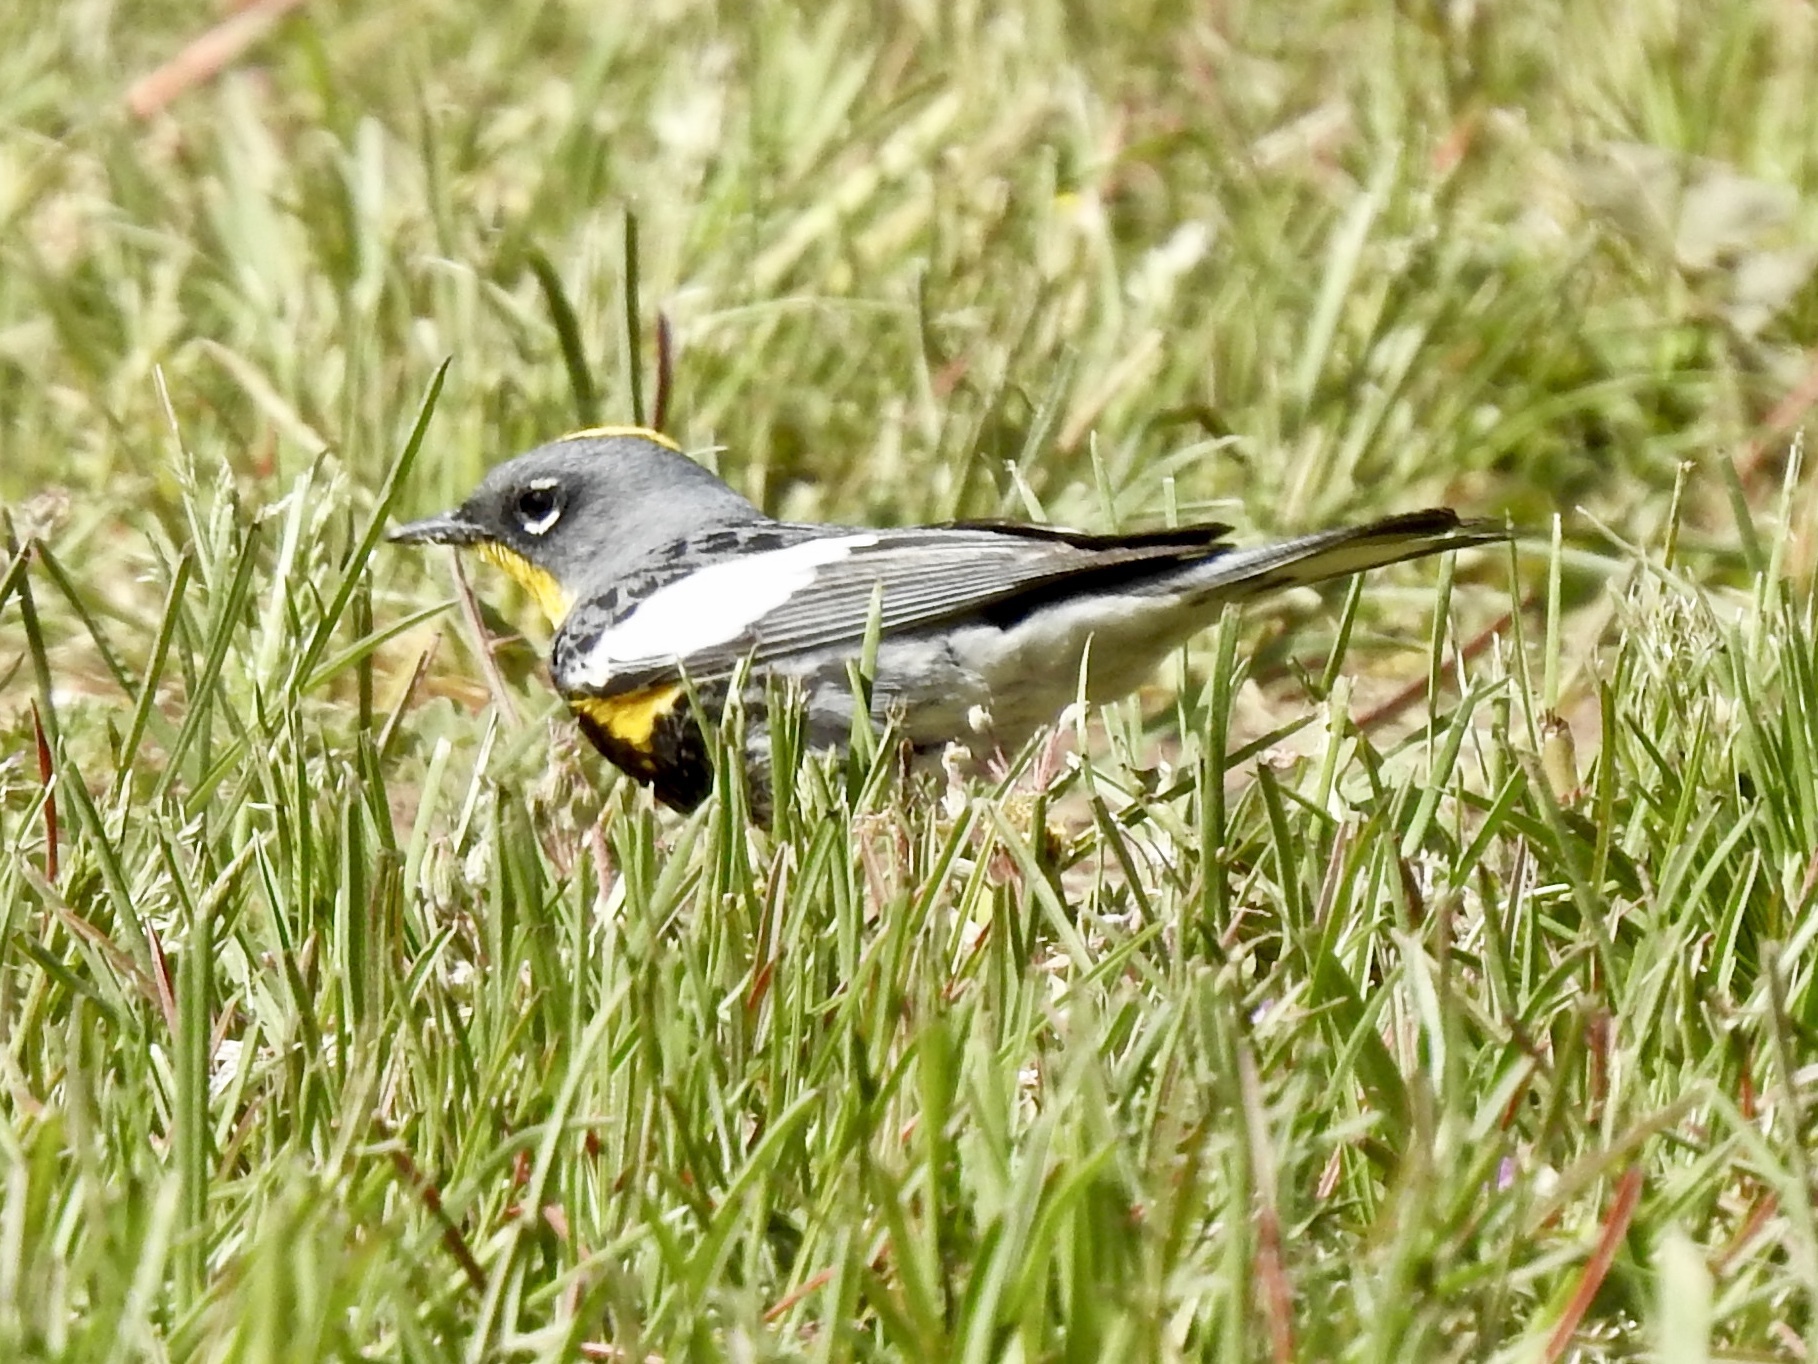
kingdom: Animalia
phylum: Chordata
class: Aves
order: Passeriformes
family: Parulidae
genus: Setophaga
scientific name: Setophaga coronata
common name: Myrtle warbler
